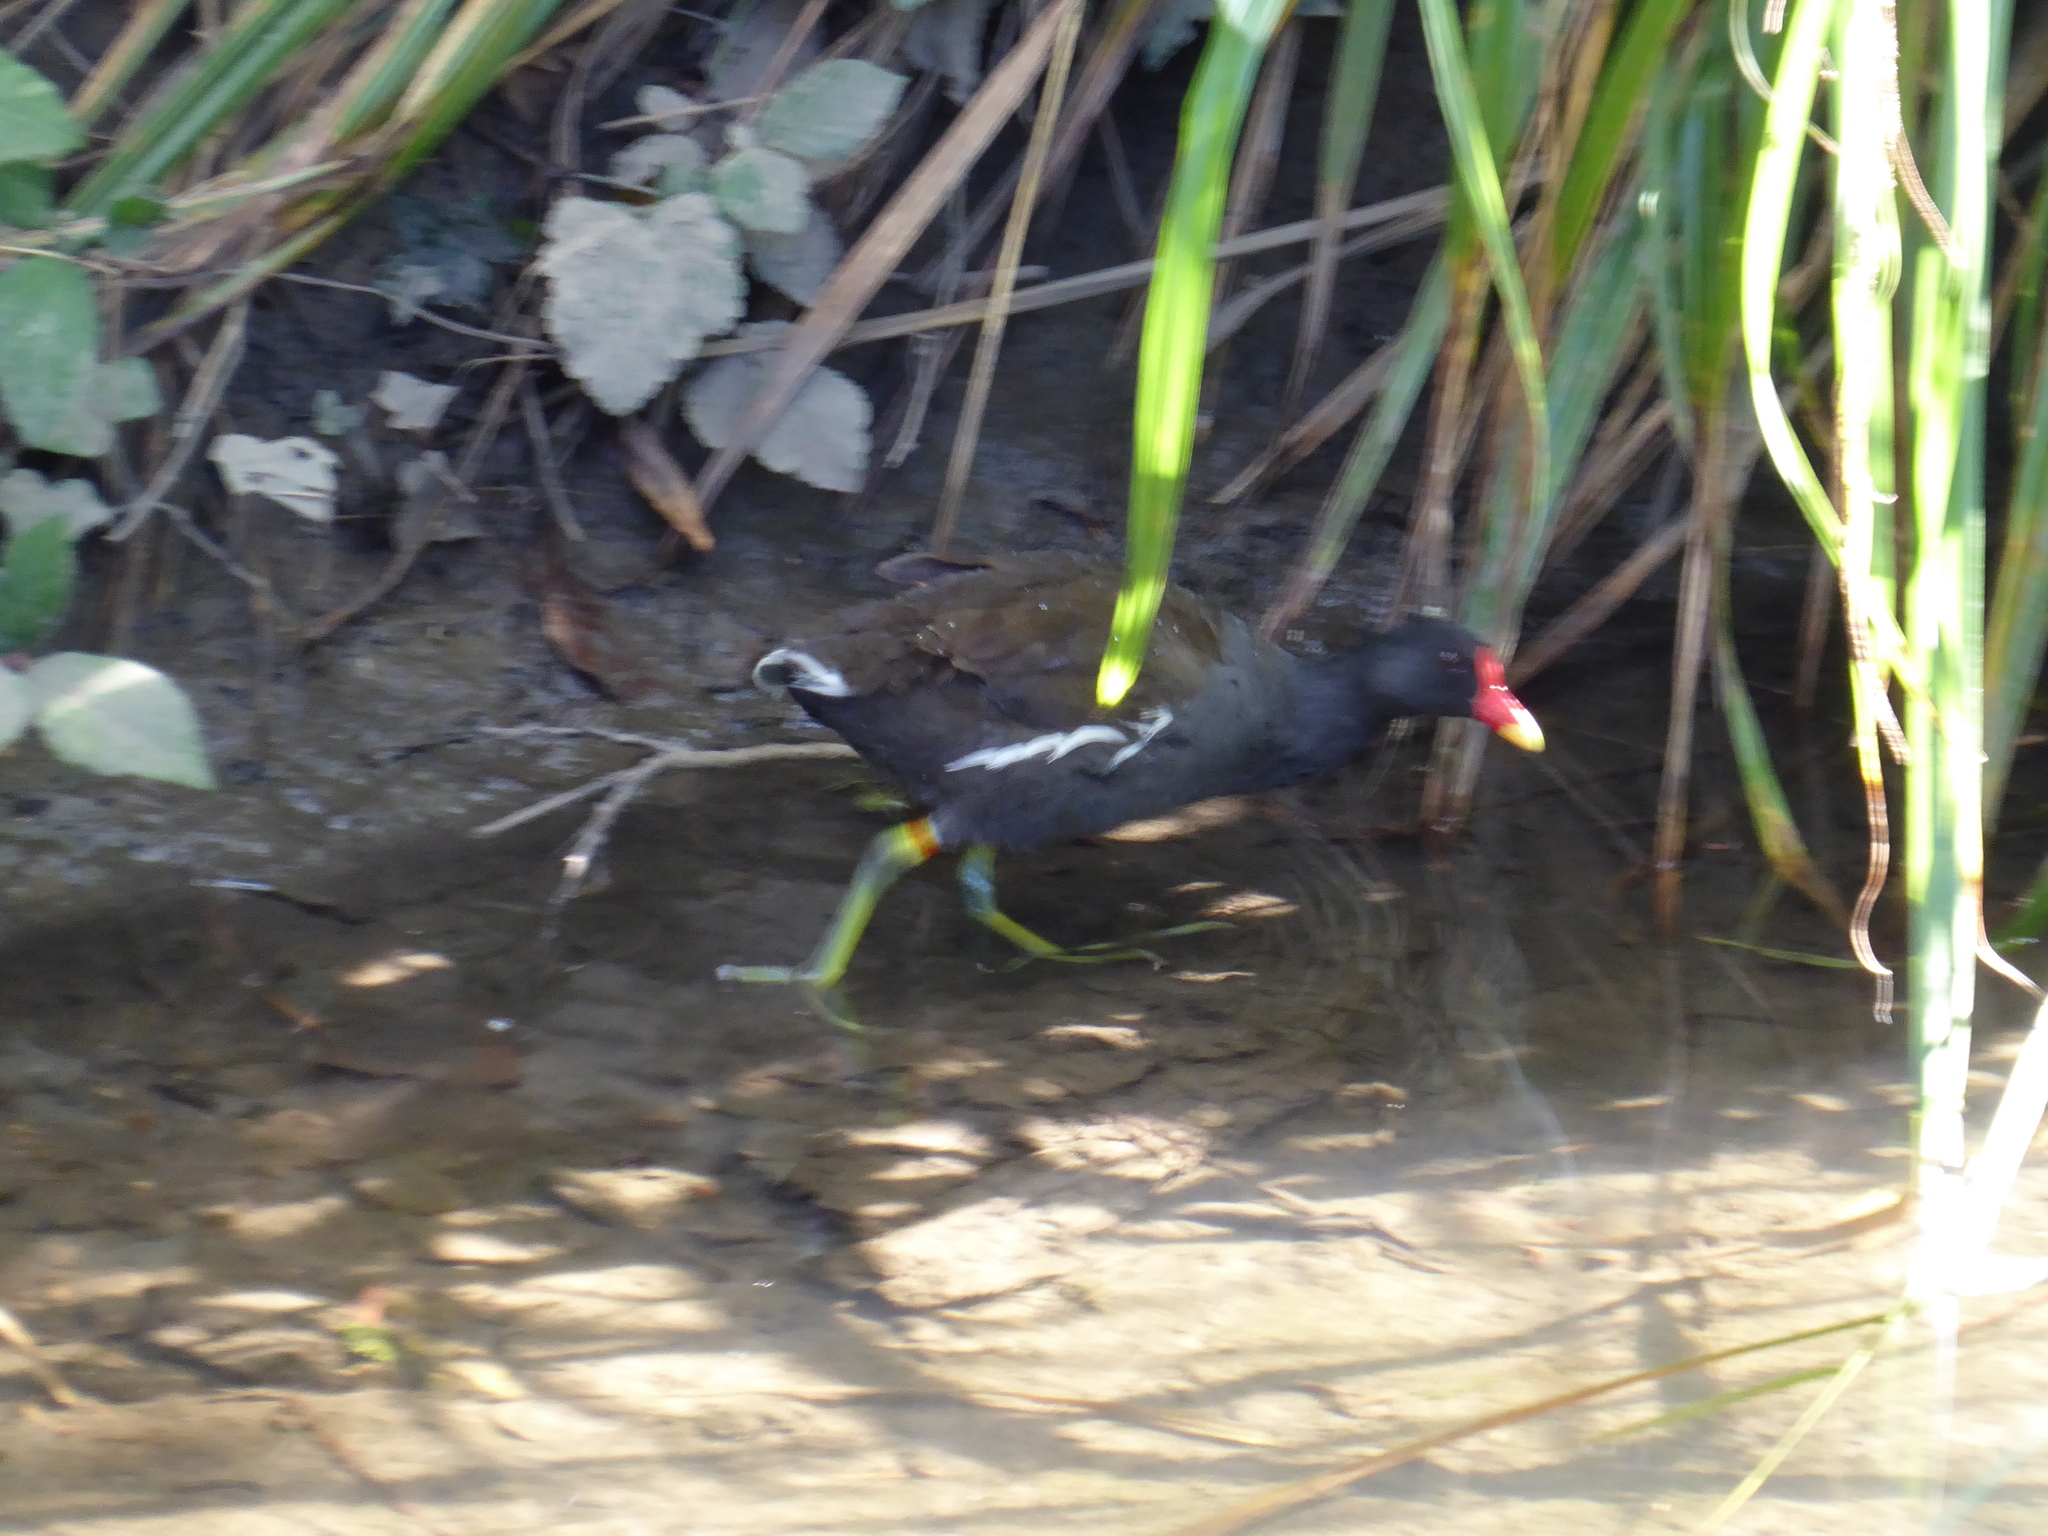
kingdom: Animalia
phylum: Chordata
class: Aves
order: Gruiformes
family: Rallidae
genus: Gallinula
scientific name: Gallinula chloropus
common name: Common moorhen
